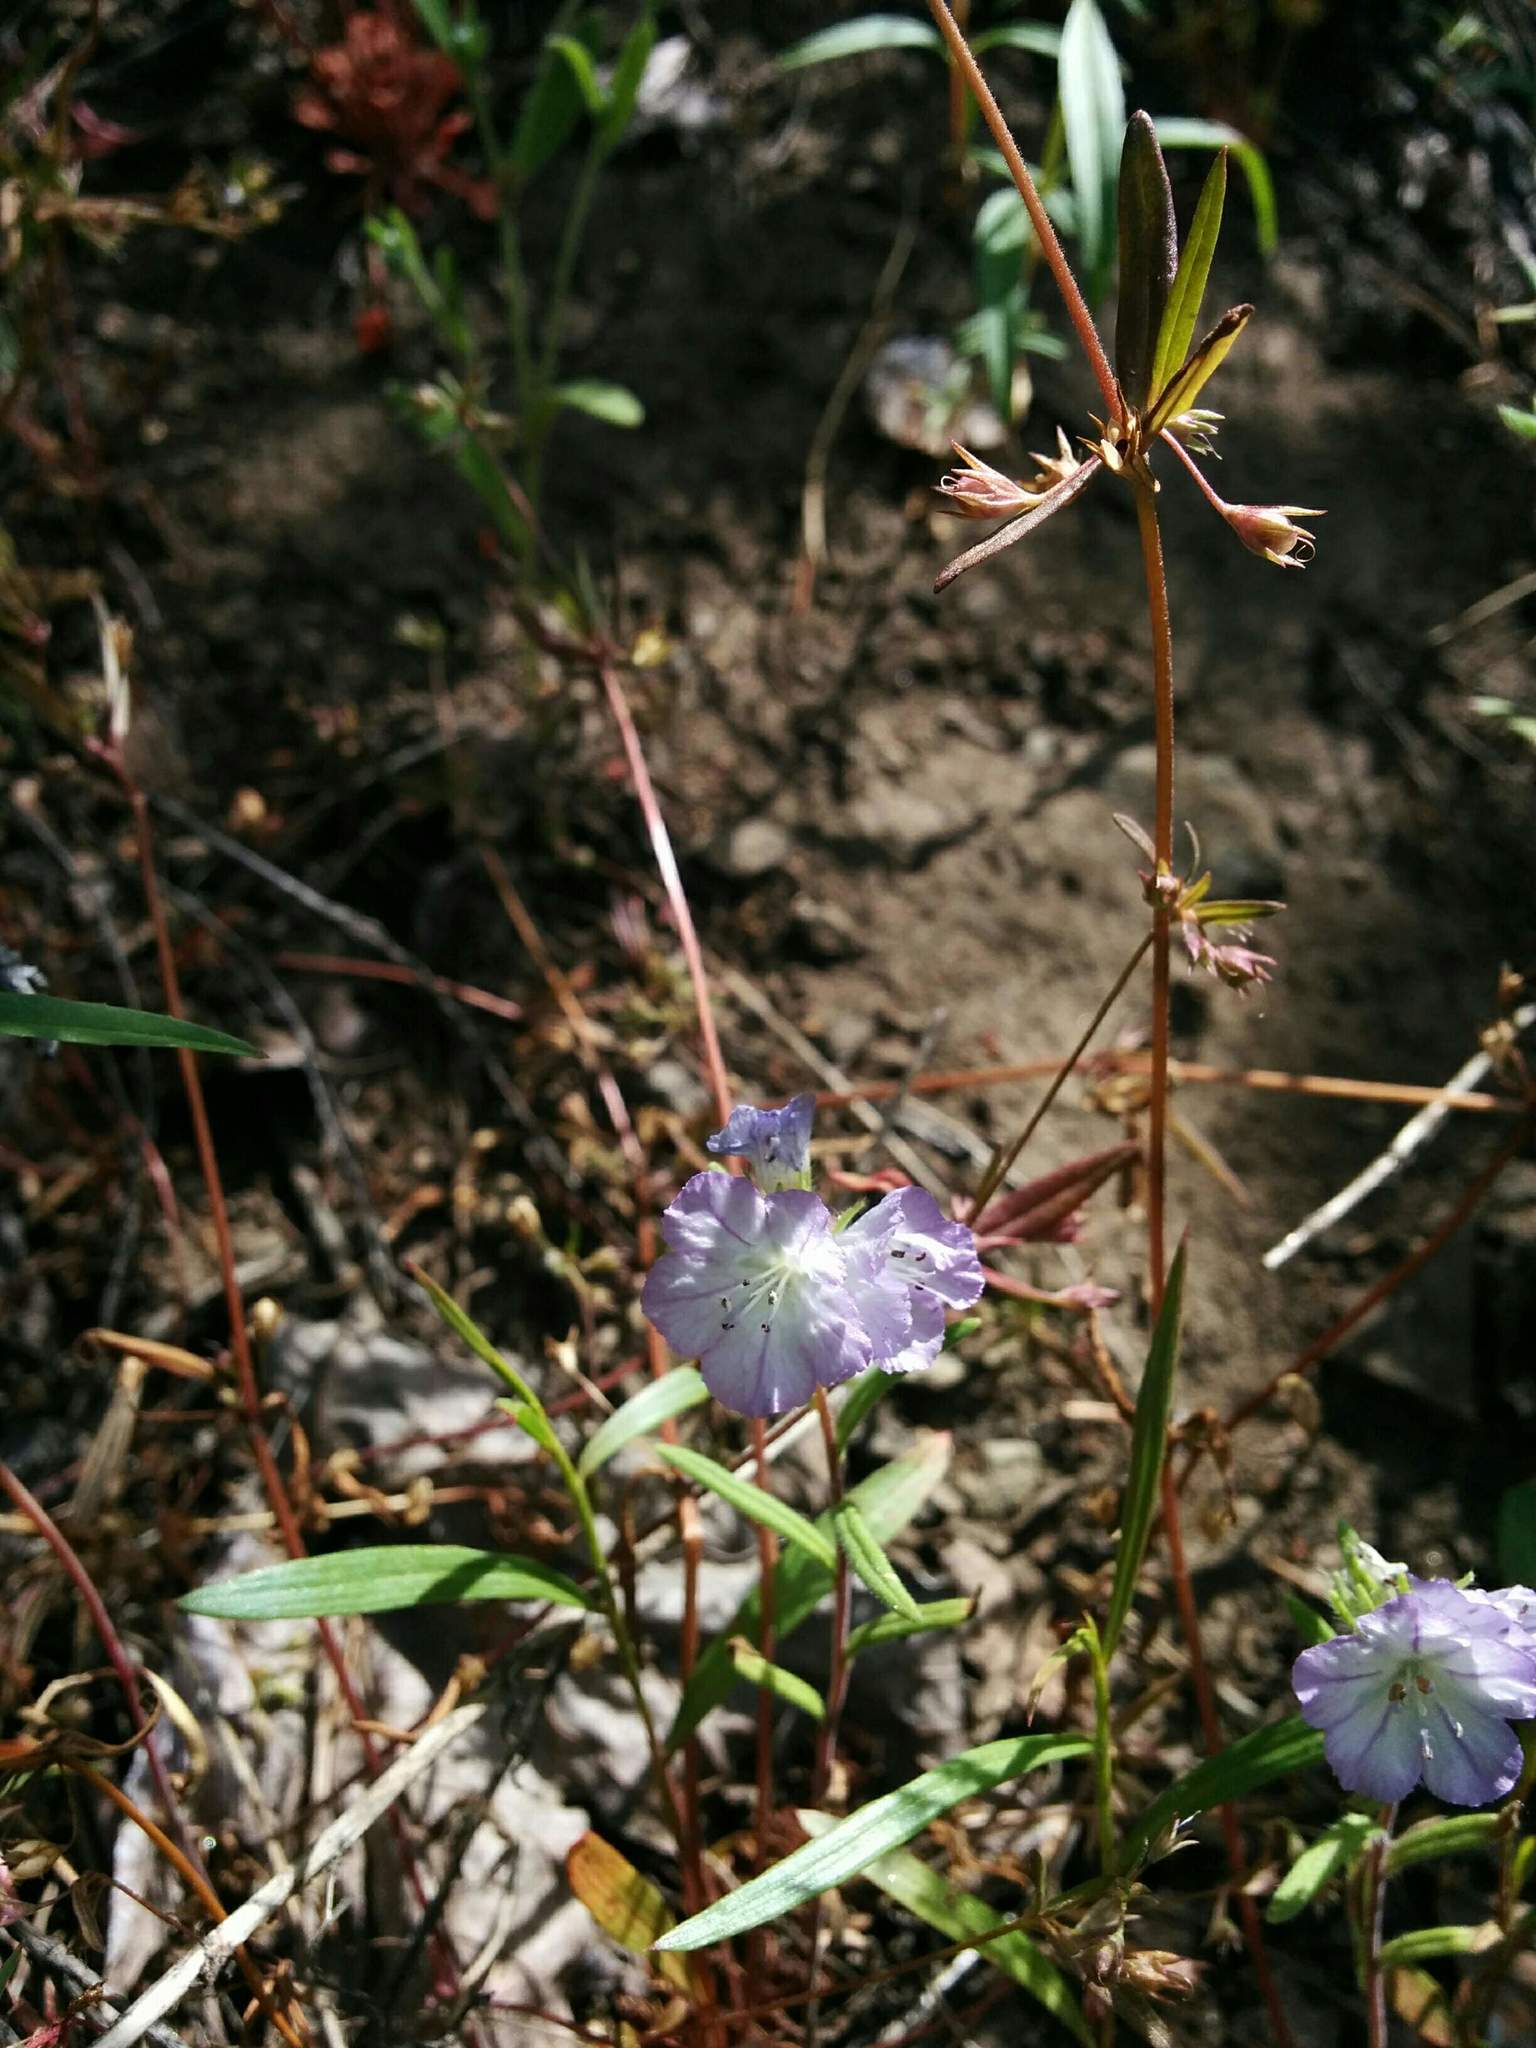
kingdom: Plantae
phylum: Tracheophyta
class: Magnoliopsida
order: Boraginales
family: Hydrophyllaceae
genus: Phacelia
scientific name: Phacelia linearis
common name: Linear-leaved phacelia
